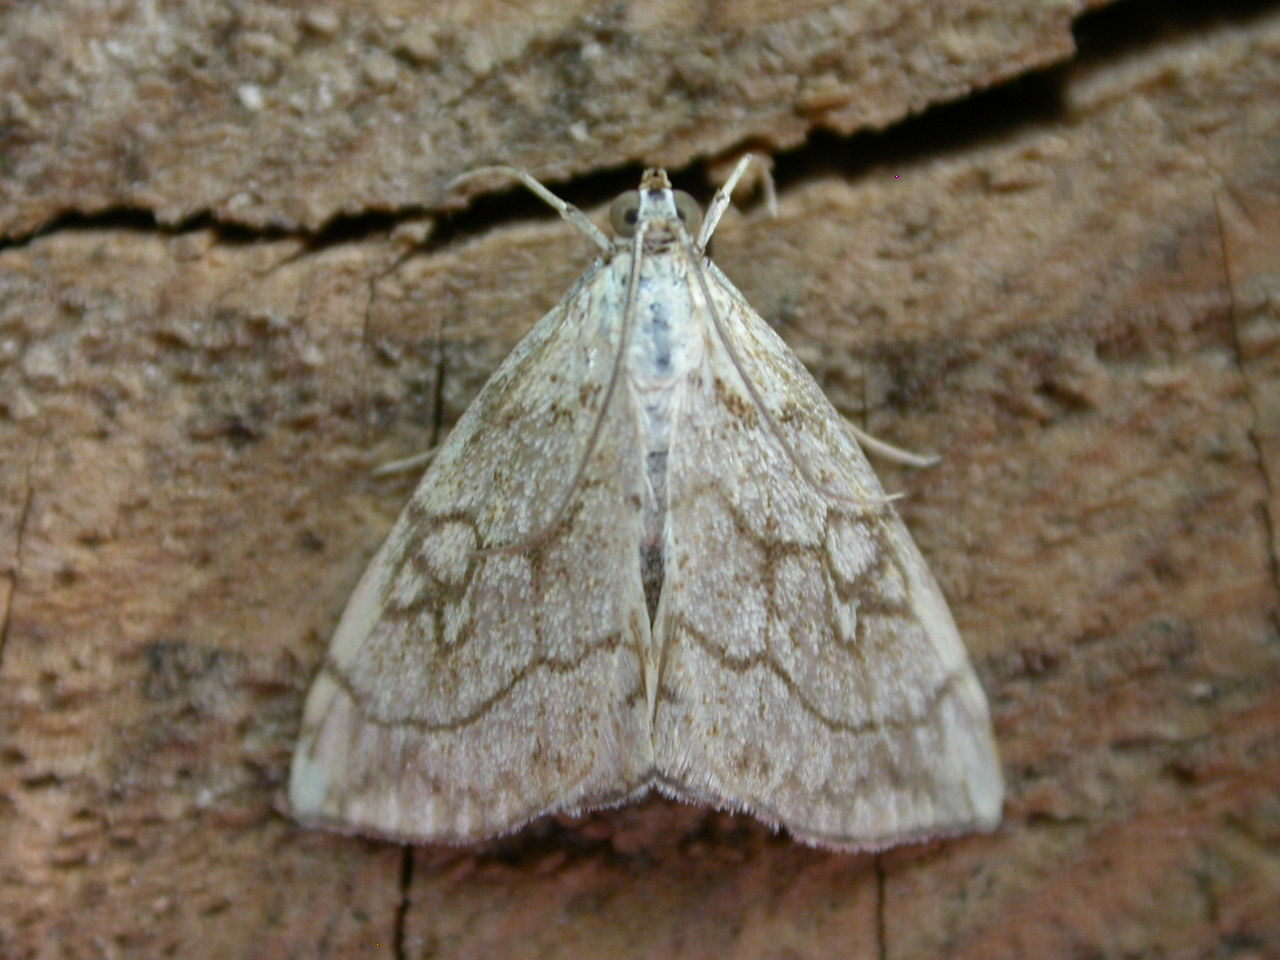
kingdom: Animalia
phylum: Arthropoda
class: Insecta
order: Lepidoptera
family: Crambidae
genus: Evergestis
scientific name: Evergestis pallidata
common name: Chequered pearl
